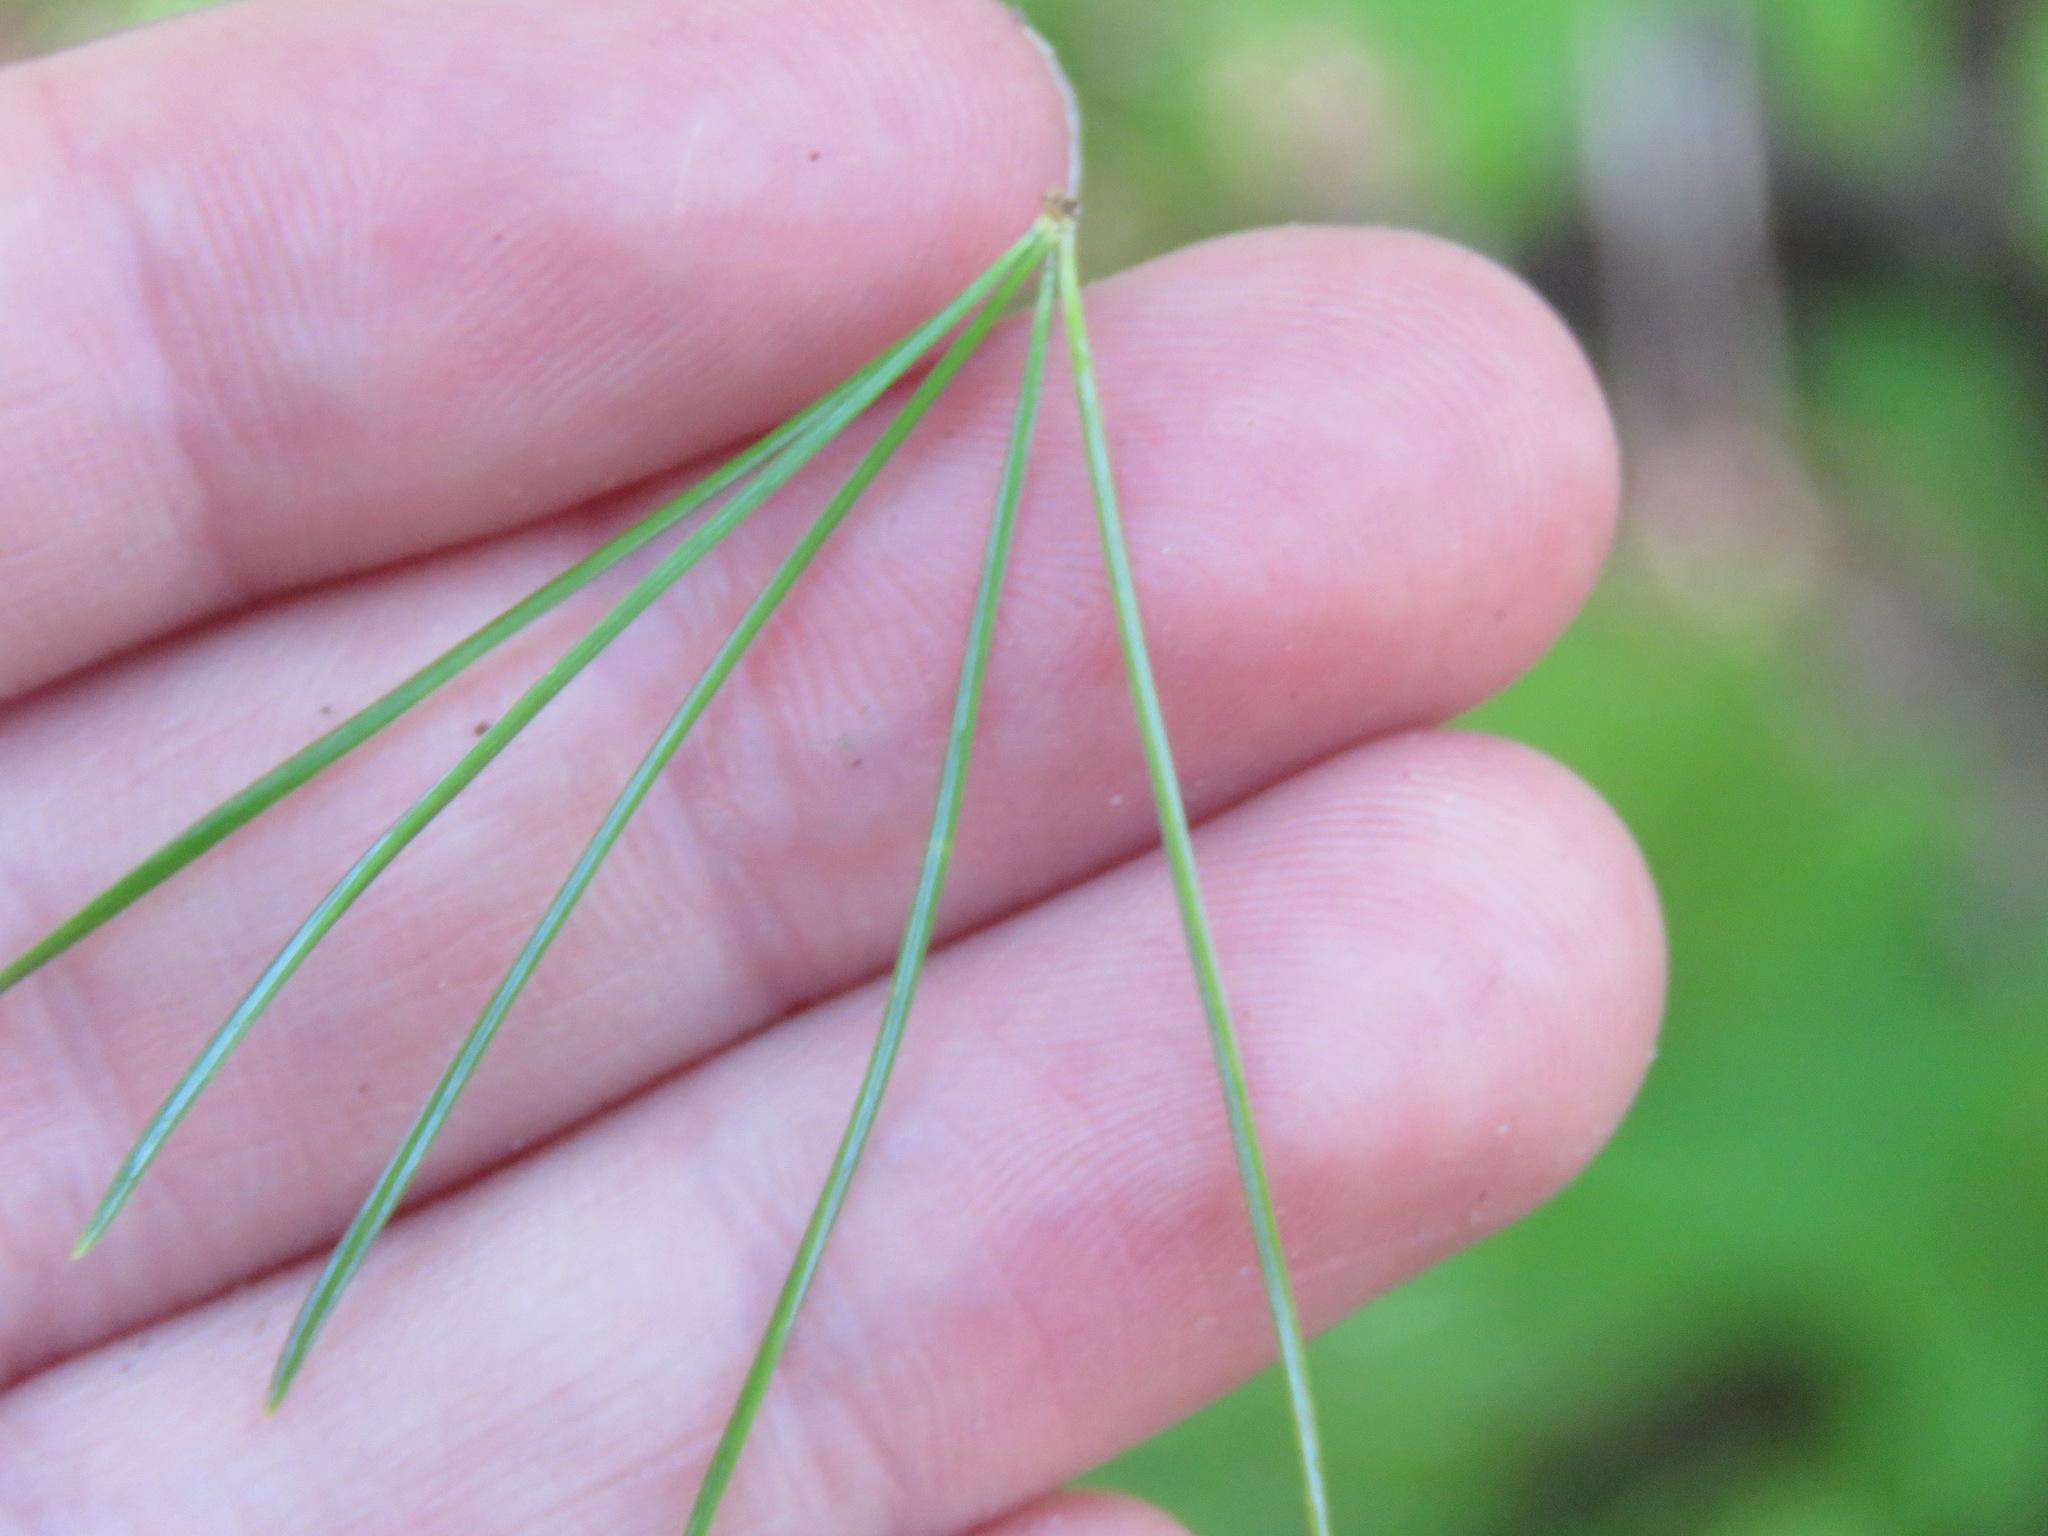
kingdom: Plantae
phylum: Tracheophyta
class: Pinopsida
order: Pinales
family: Pinaceae
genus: Pinus
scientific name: Pinus monticola
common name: Western white pine
